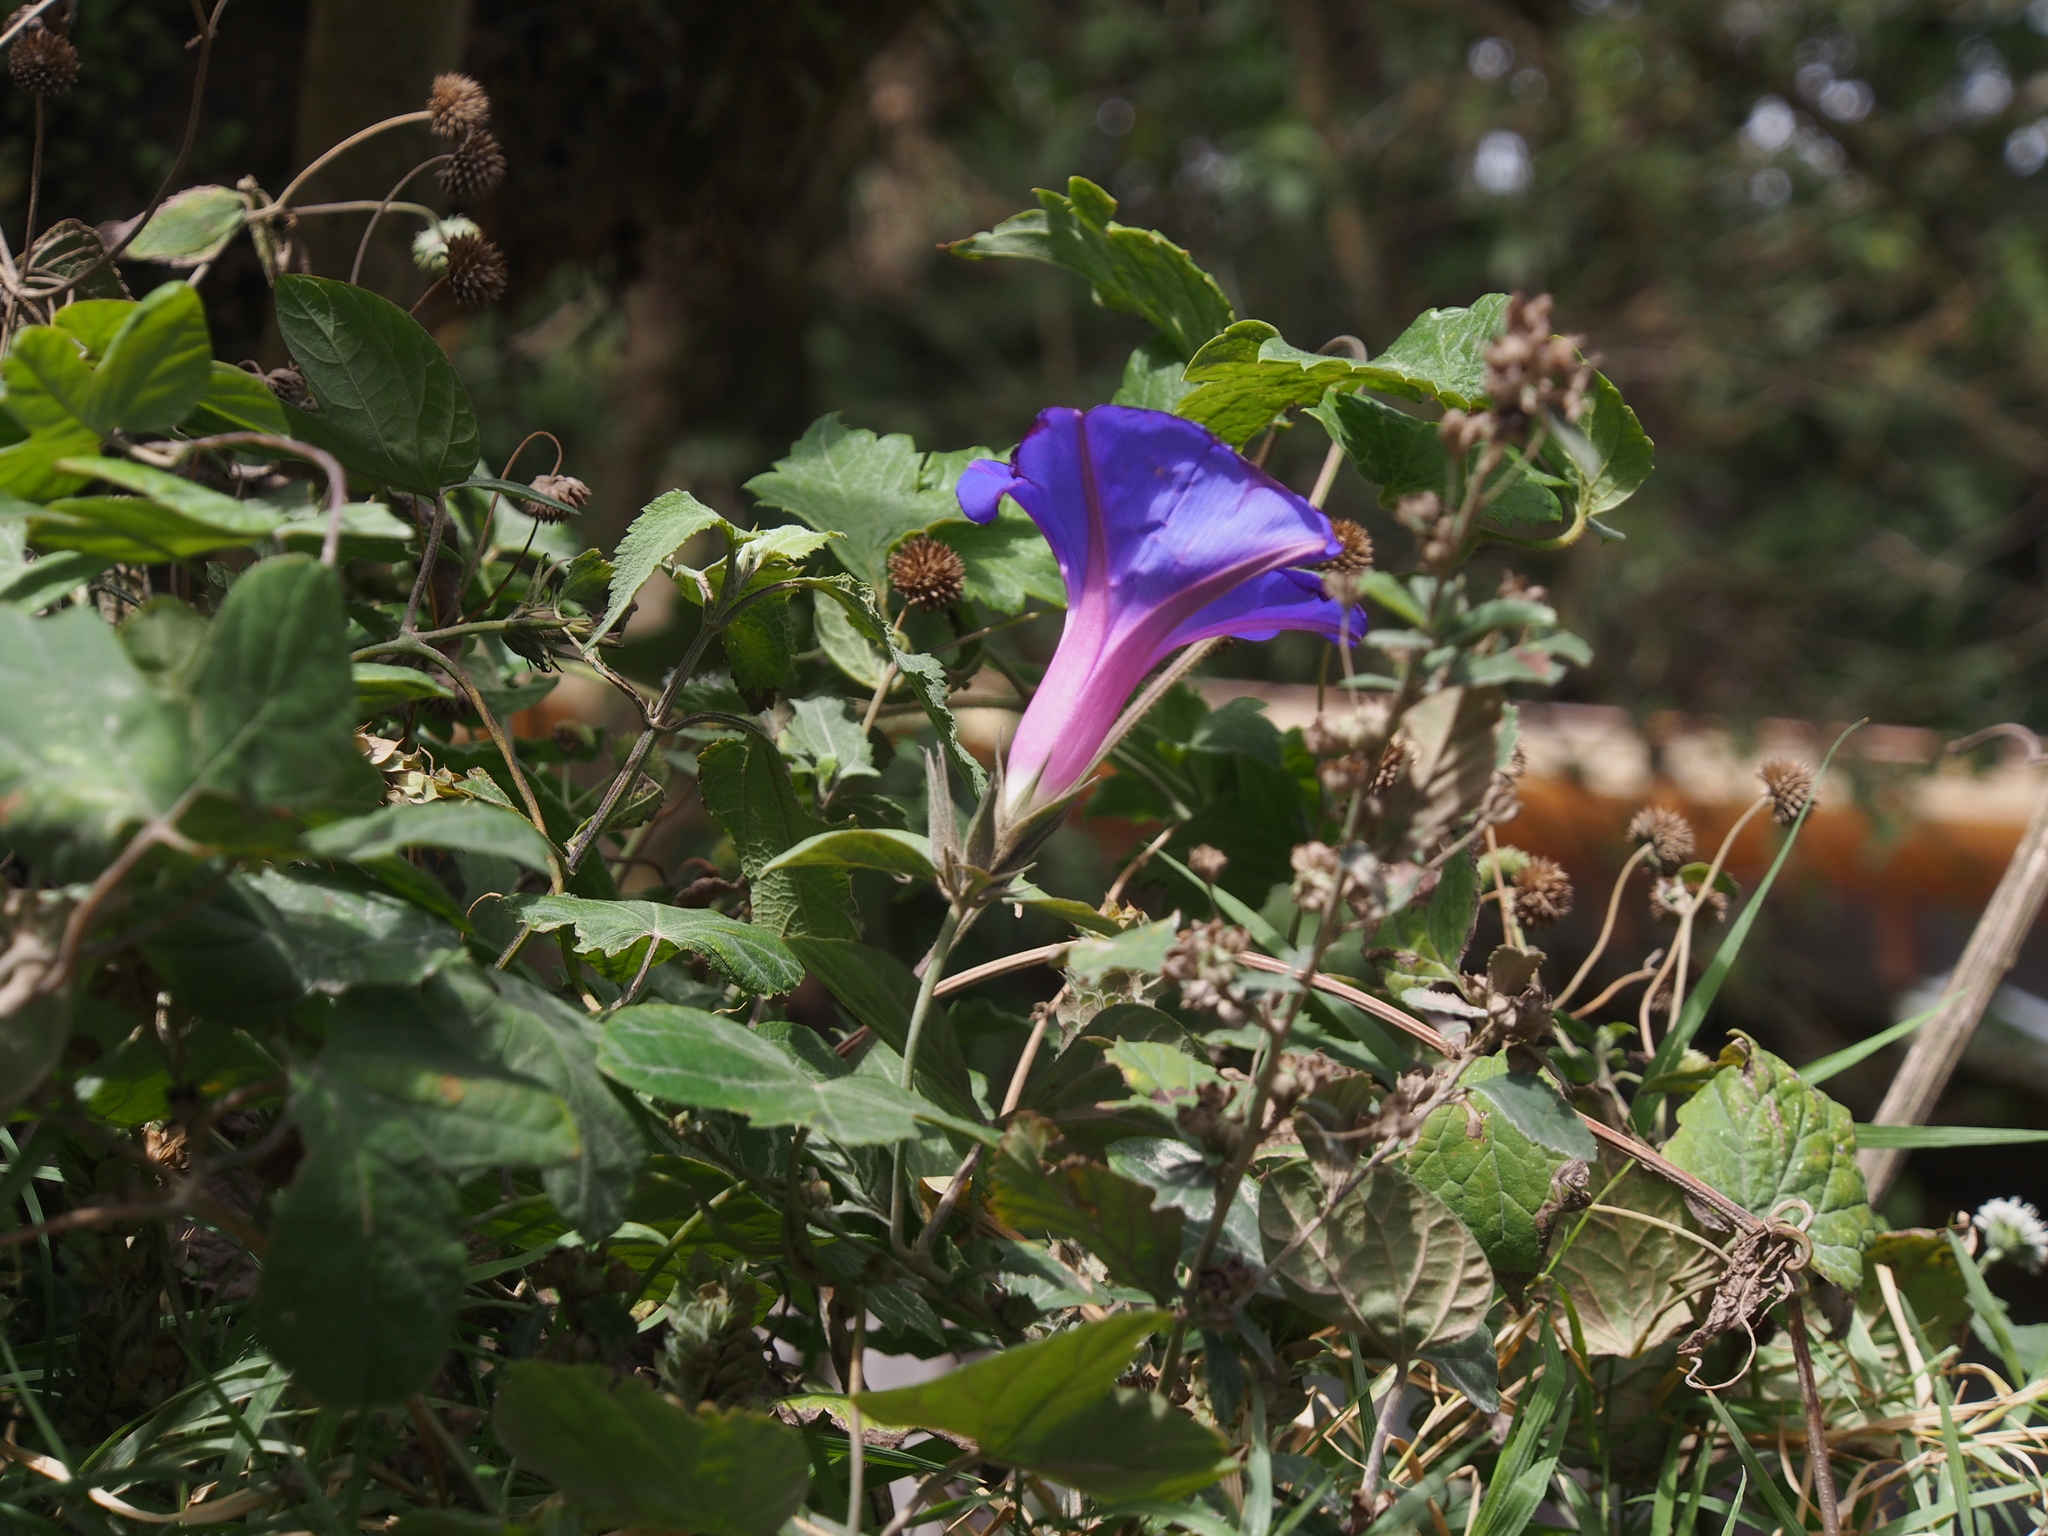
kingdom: Plantae
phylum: Tracheophyta
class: Magnoliopsida
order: Solanales
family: Convolvulaceae
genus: Ipomoea
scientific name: Ipomoea indica
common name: Blue dawnflower
